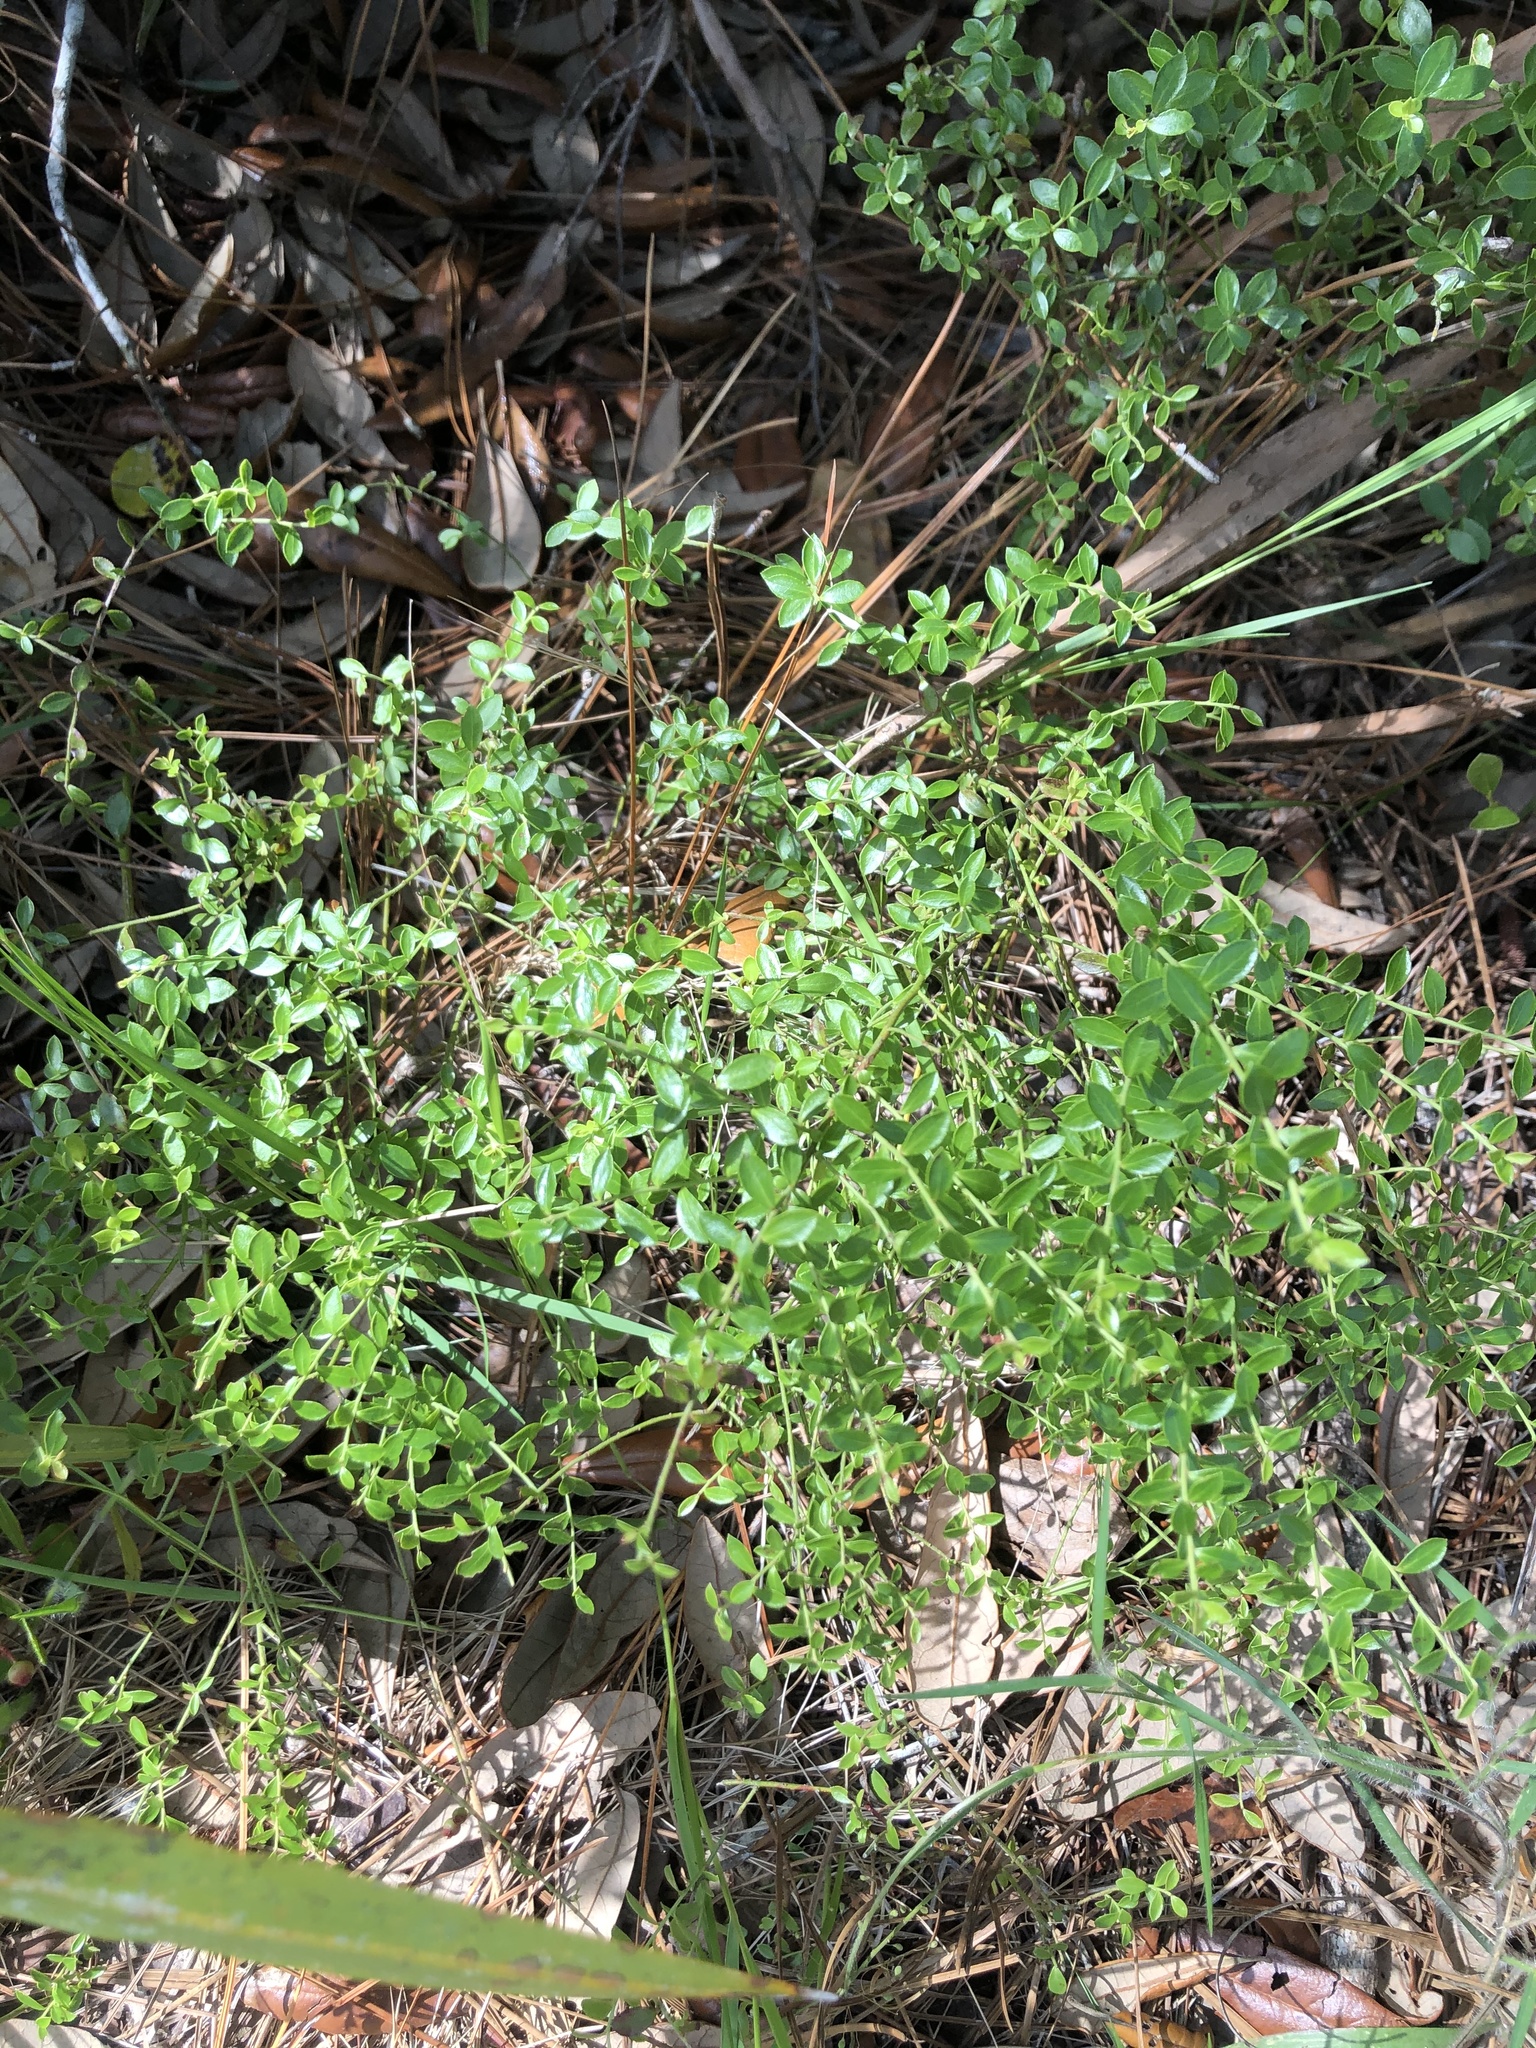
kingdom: Plantae
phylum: Tracheophyta
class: Magnoliopsida
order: Ericales
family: Ericaceae
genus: Vaccinium
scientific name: Vaccinium myrsinites
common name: Evergreen blueberry
